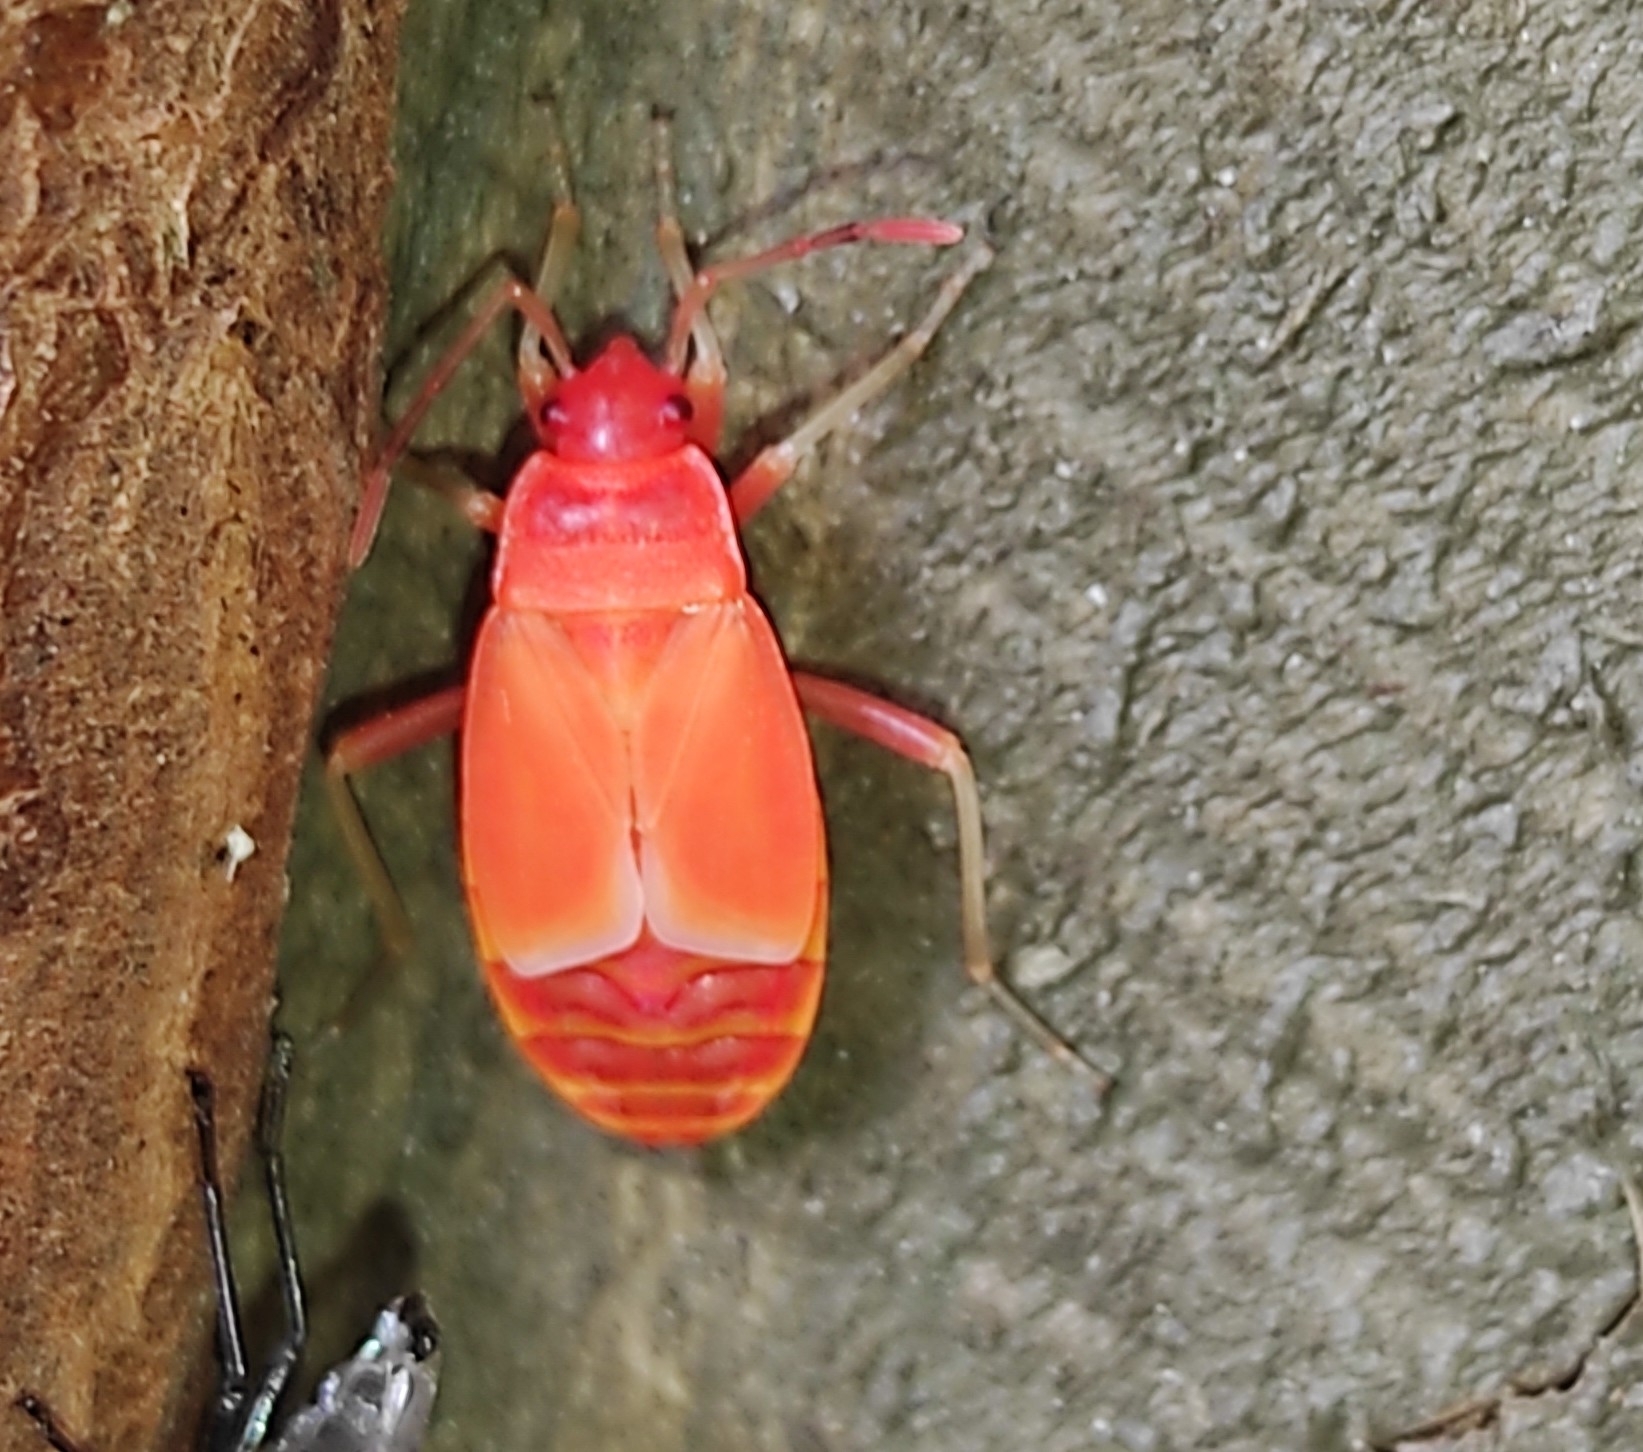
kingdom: Animalia
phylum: Arthropoda
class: Insecta
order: Hemiptera
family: Pyrrhocoridae
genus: Pyrrhocoris
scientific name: Pyrrhocoris apterus
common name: Firebug
